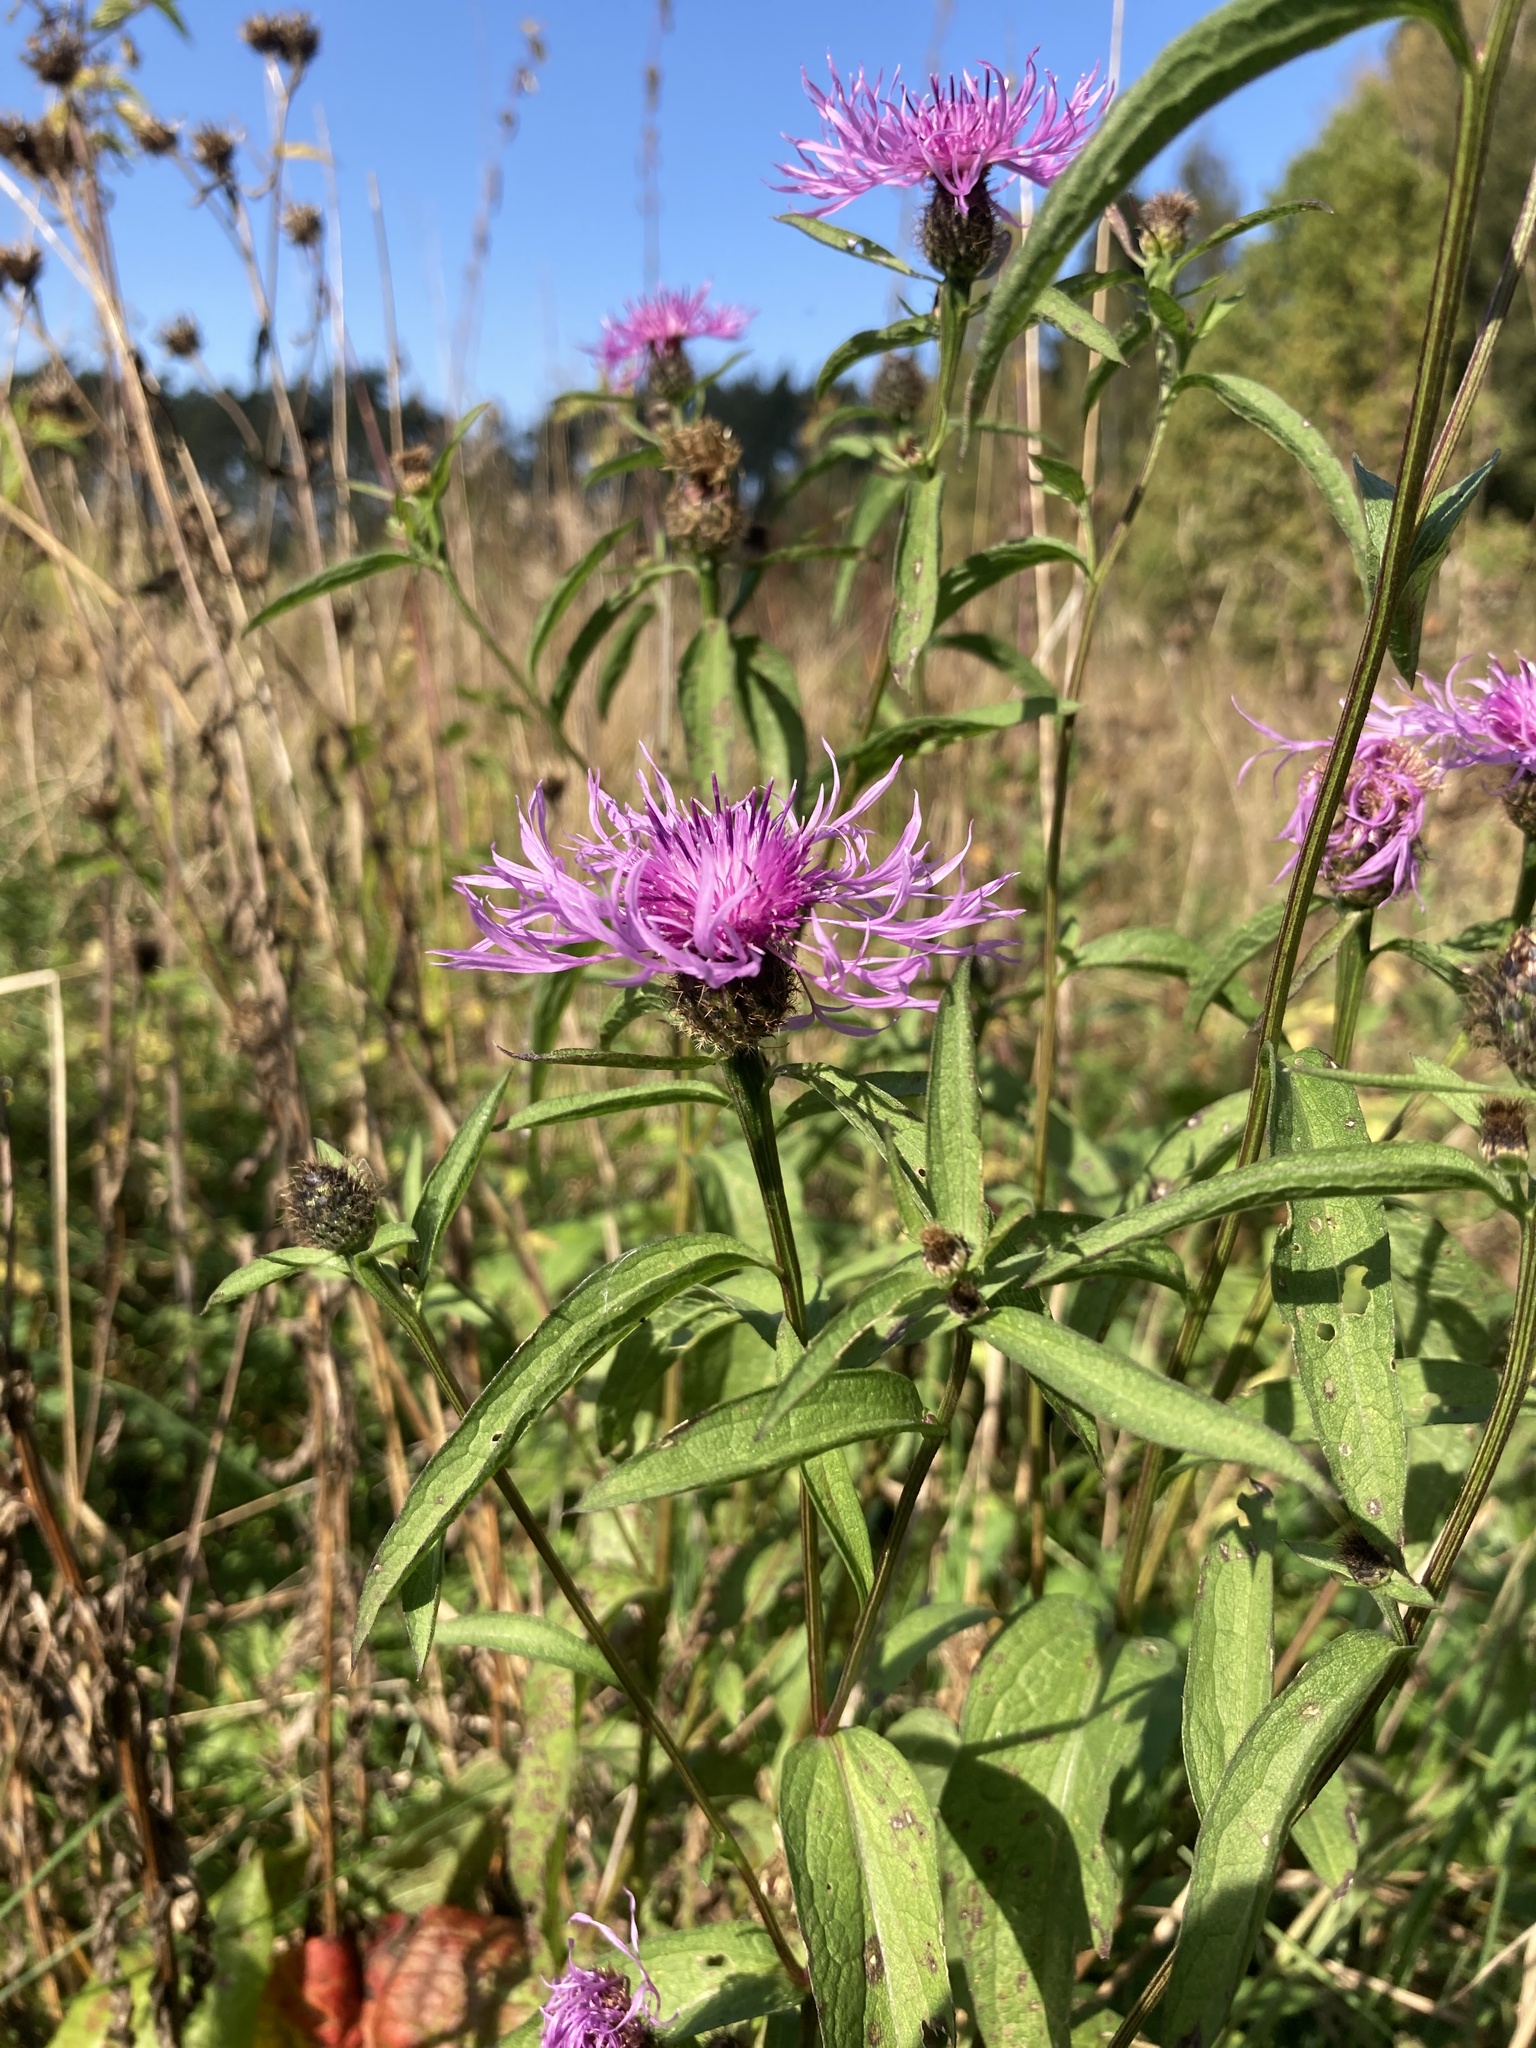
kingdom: Plantae
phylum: Tracheophyta
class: Magnoliopsida
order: Asterales
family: Asteraceae
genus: Centaurea
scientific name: Centaurea phrygia
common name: Wig knapweed
